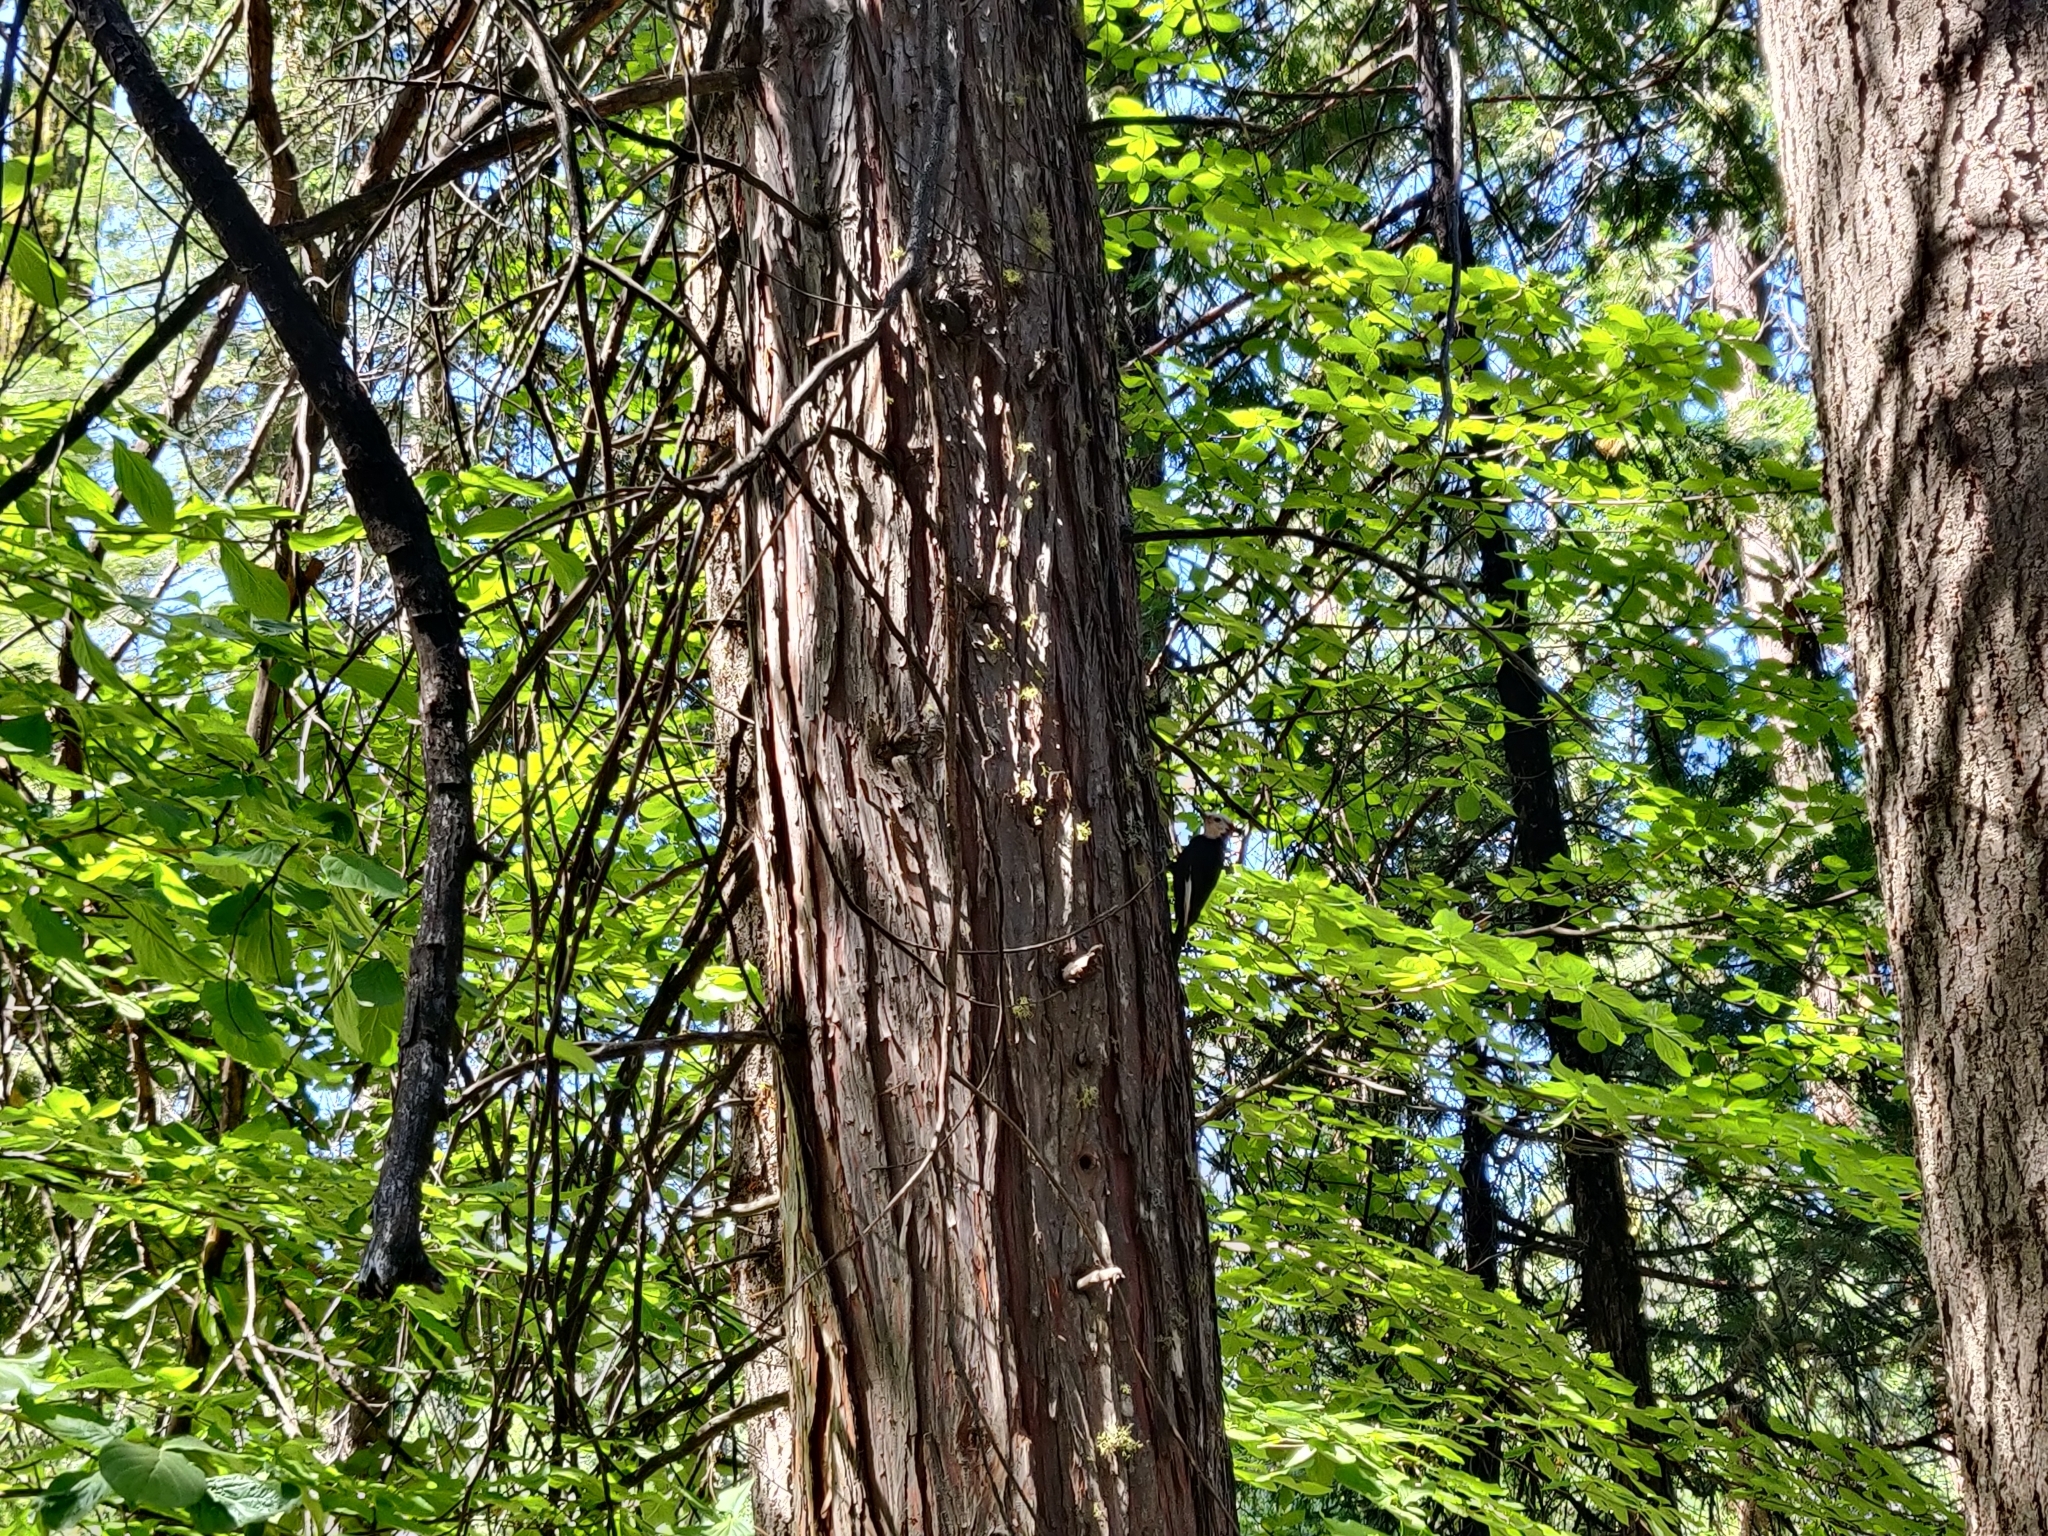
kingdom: Animalia
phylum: Chordata
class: Aves
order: Piciformes
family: Picidae
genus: Leuconotopicus
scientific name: Leuconotopicus albolarvatus
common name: White-headed woodpecker
